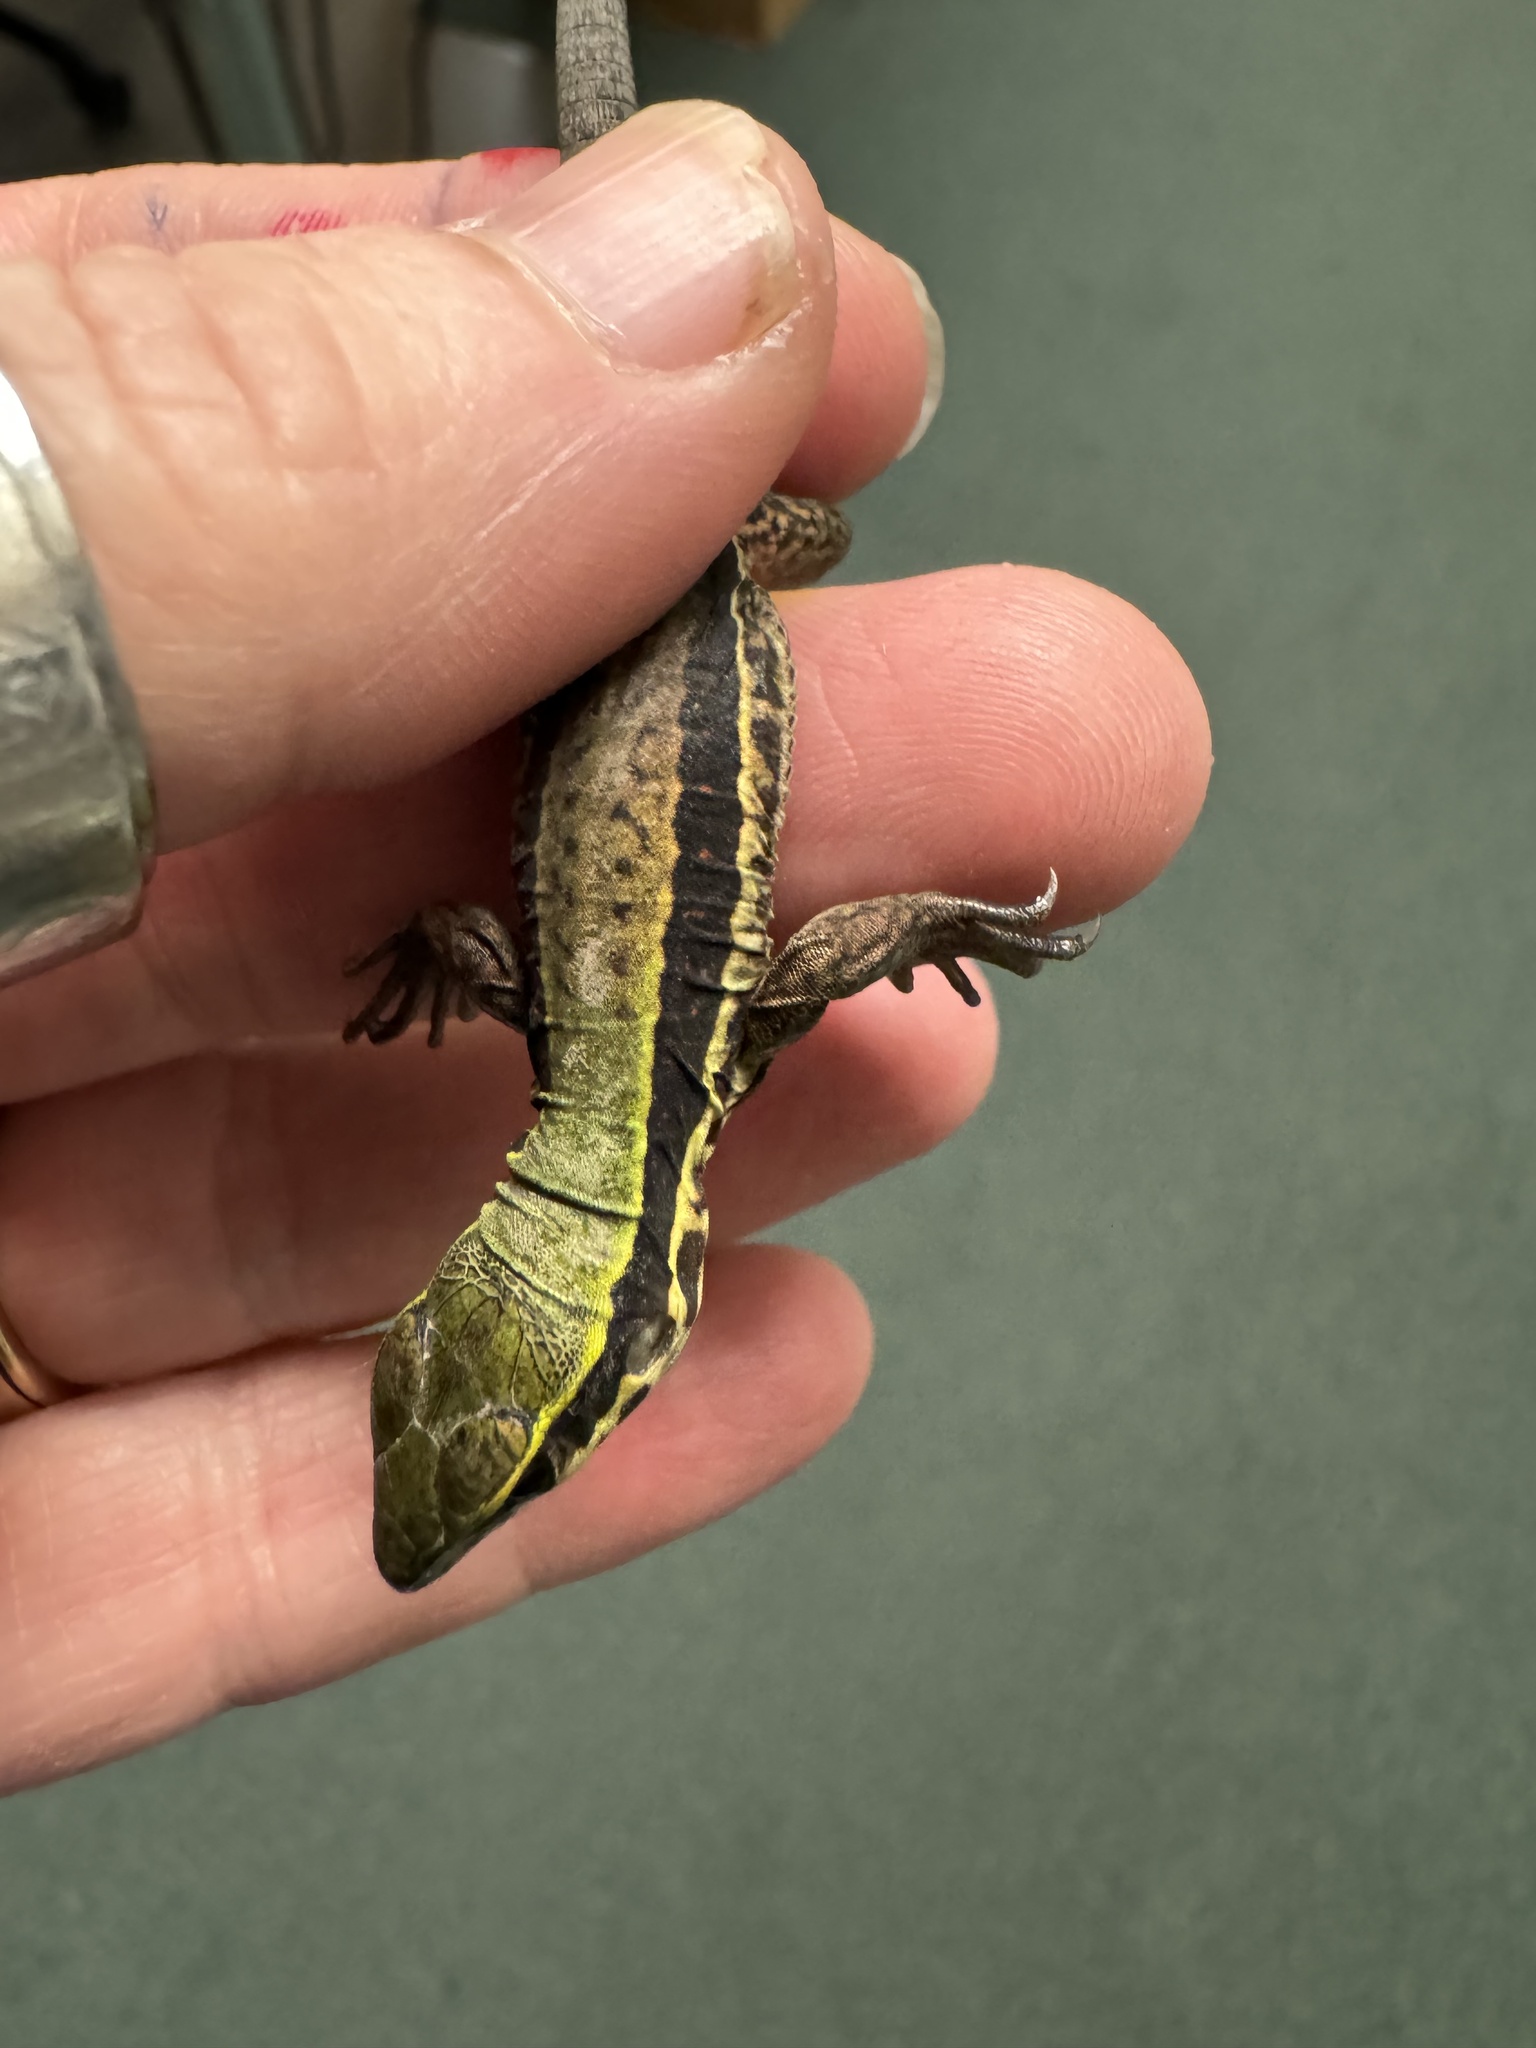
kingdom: Animalia
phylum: Chordata
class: Squamata
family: Teiidae
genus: Ameiva
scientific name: Ameiva ameiva
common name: Giant ameiva
